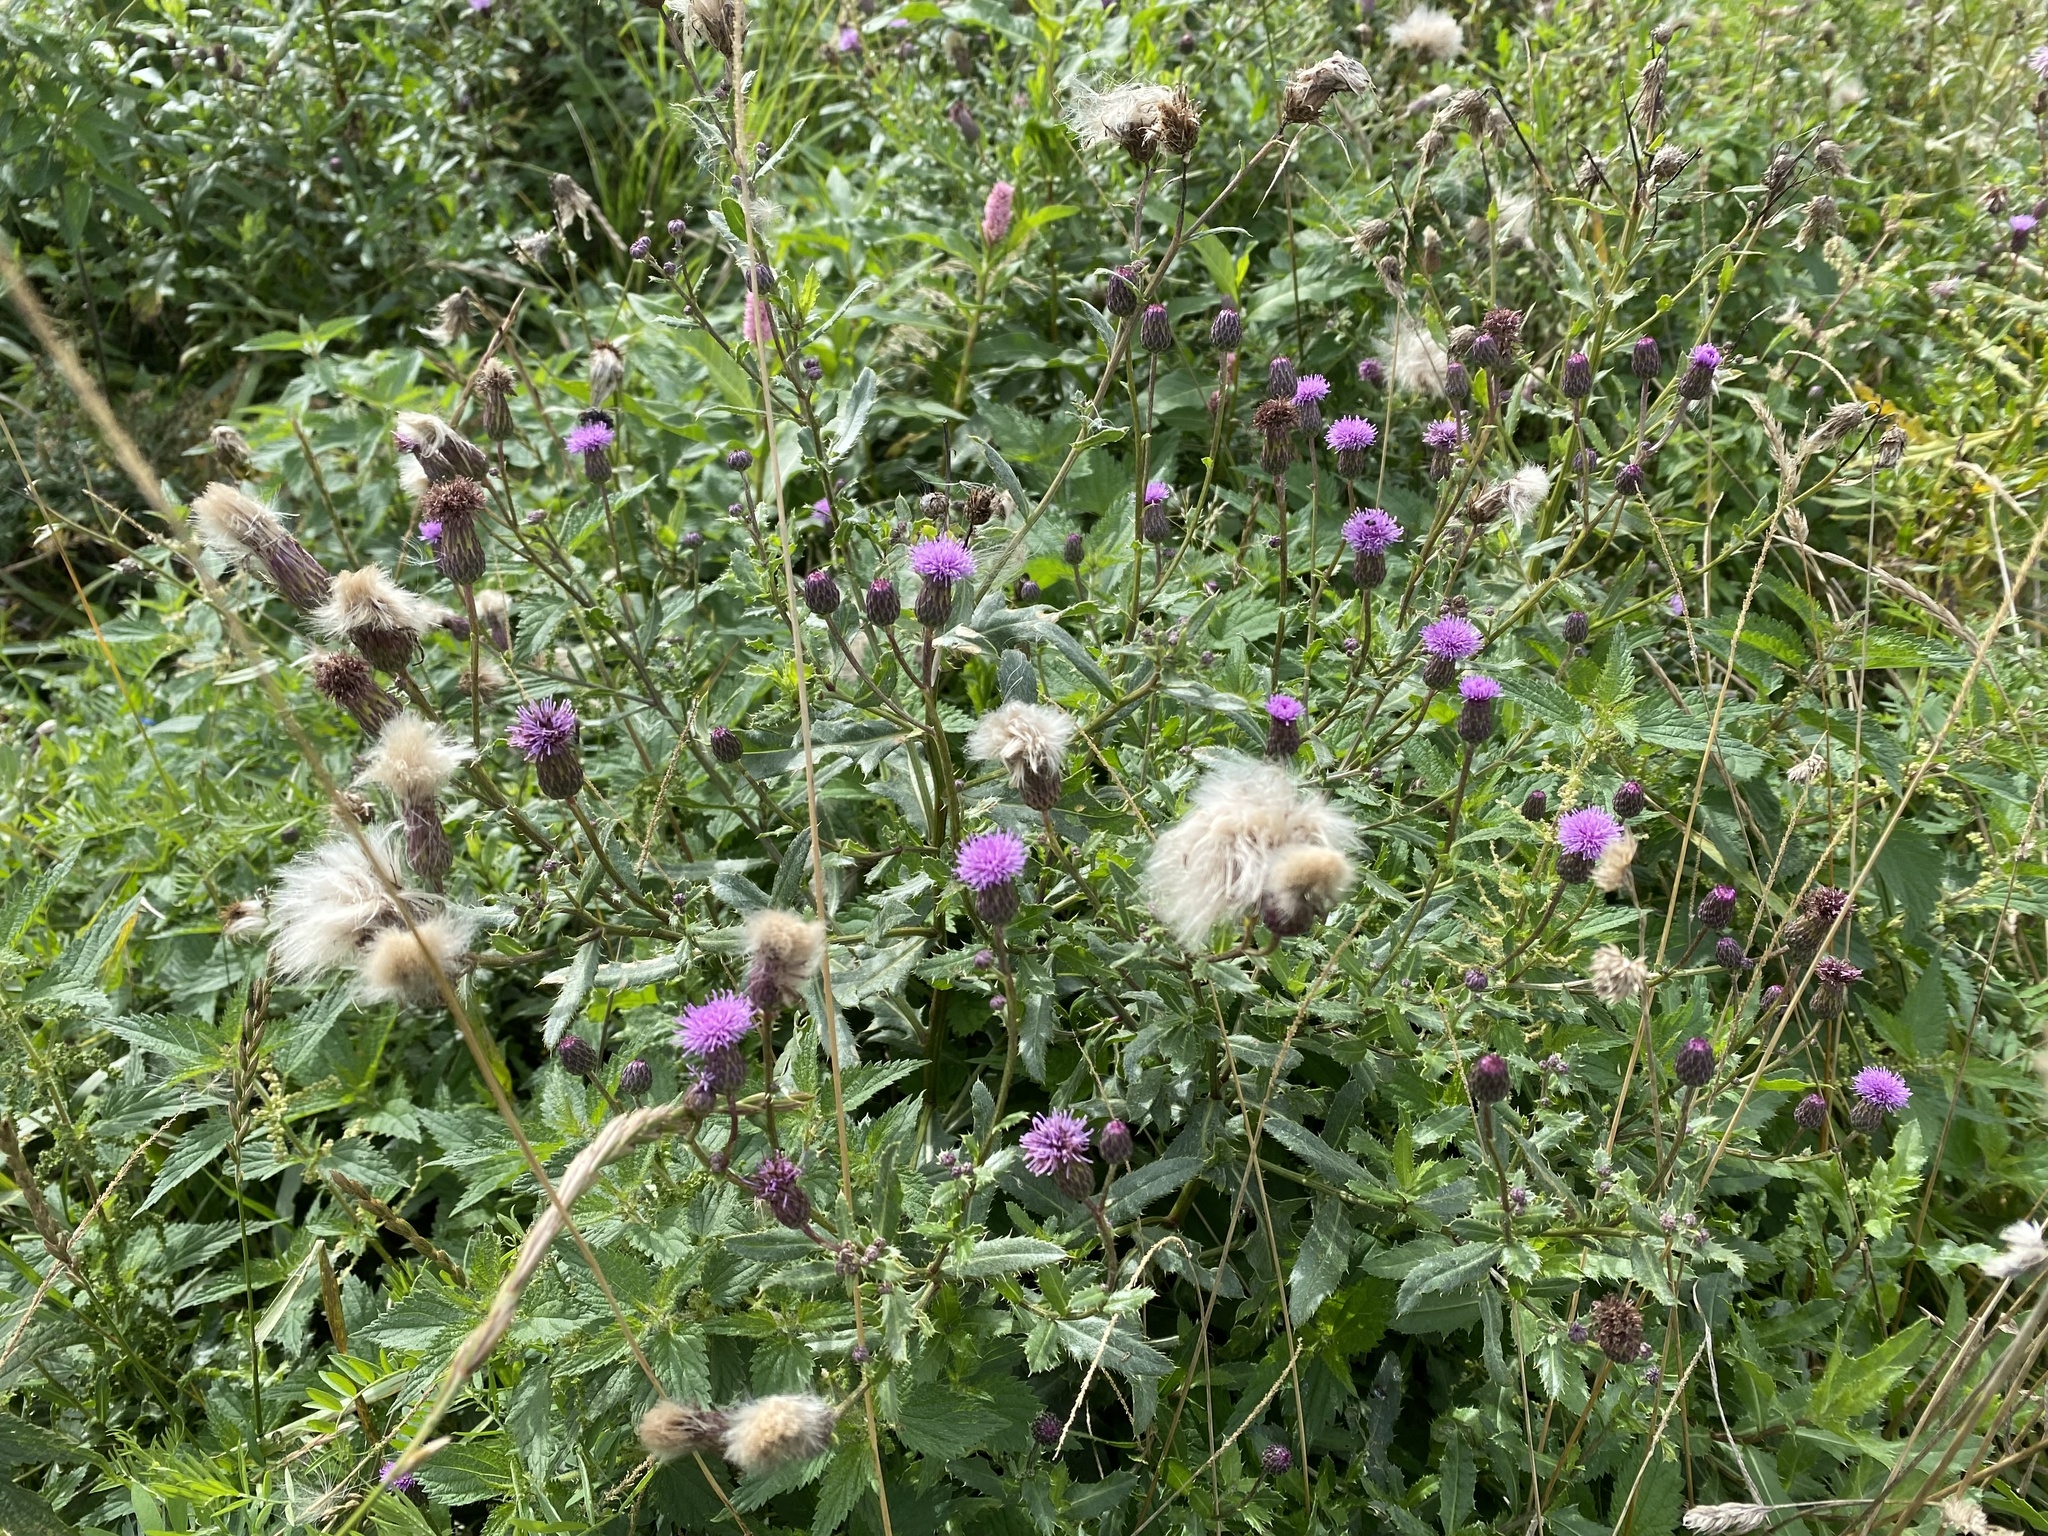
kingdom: Plantae
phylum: Tracheophyta
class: Magnoliopsida
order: Asterales
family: Asteraceae
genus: Cirsium
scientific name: Cirsium arvense
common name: Creeping thistle
